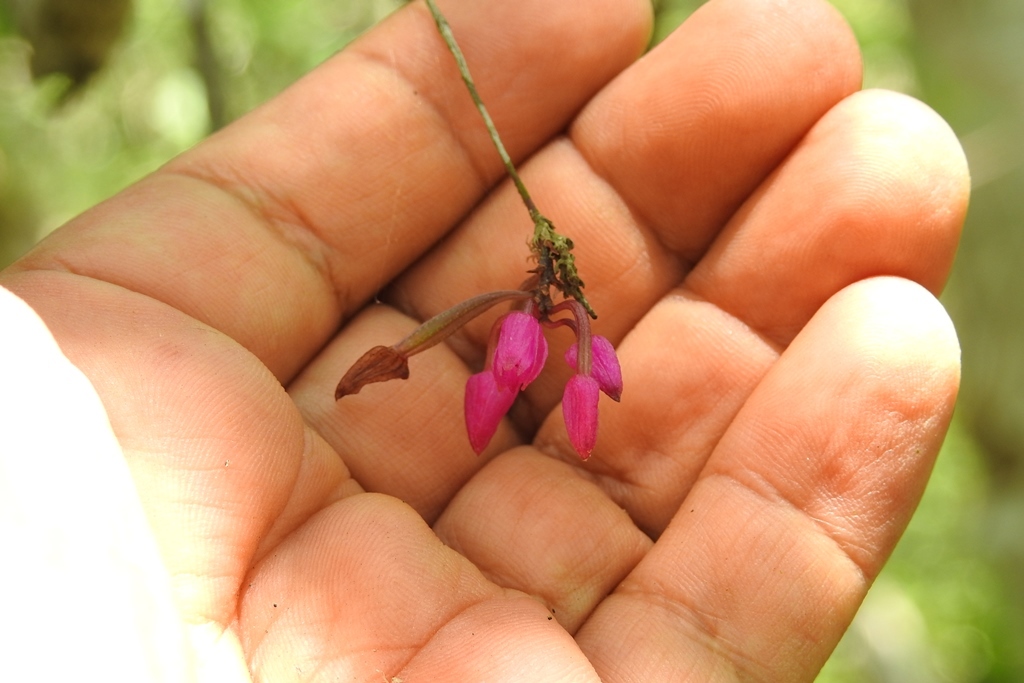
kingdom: Plantae
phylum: Tracheophyta
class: Liliopsida
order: Asparagales
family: Orchidaceae
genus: Domingoa
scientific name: Domingoa purpurea
